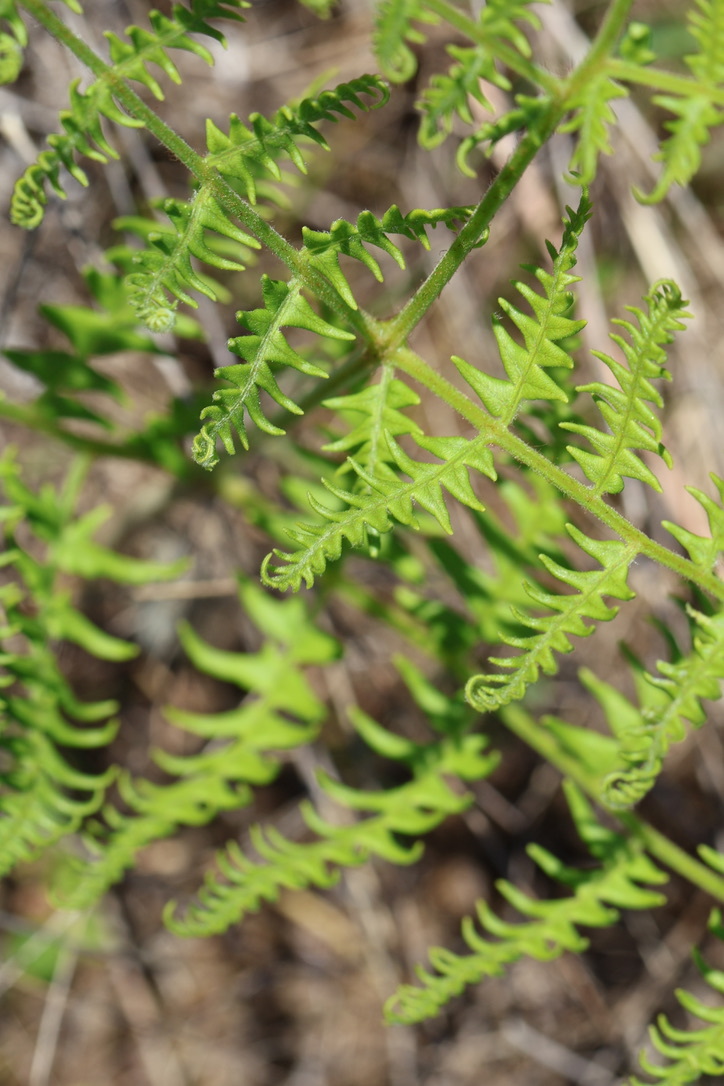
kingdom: Plantae
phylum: Tracheophyta
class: Polypodiopsida
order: Polypodiales
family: Dennstaedtiaceae
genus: Pteridium
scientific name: Pteridium aquilinum
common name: Bracken
